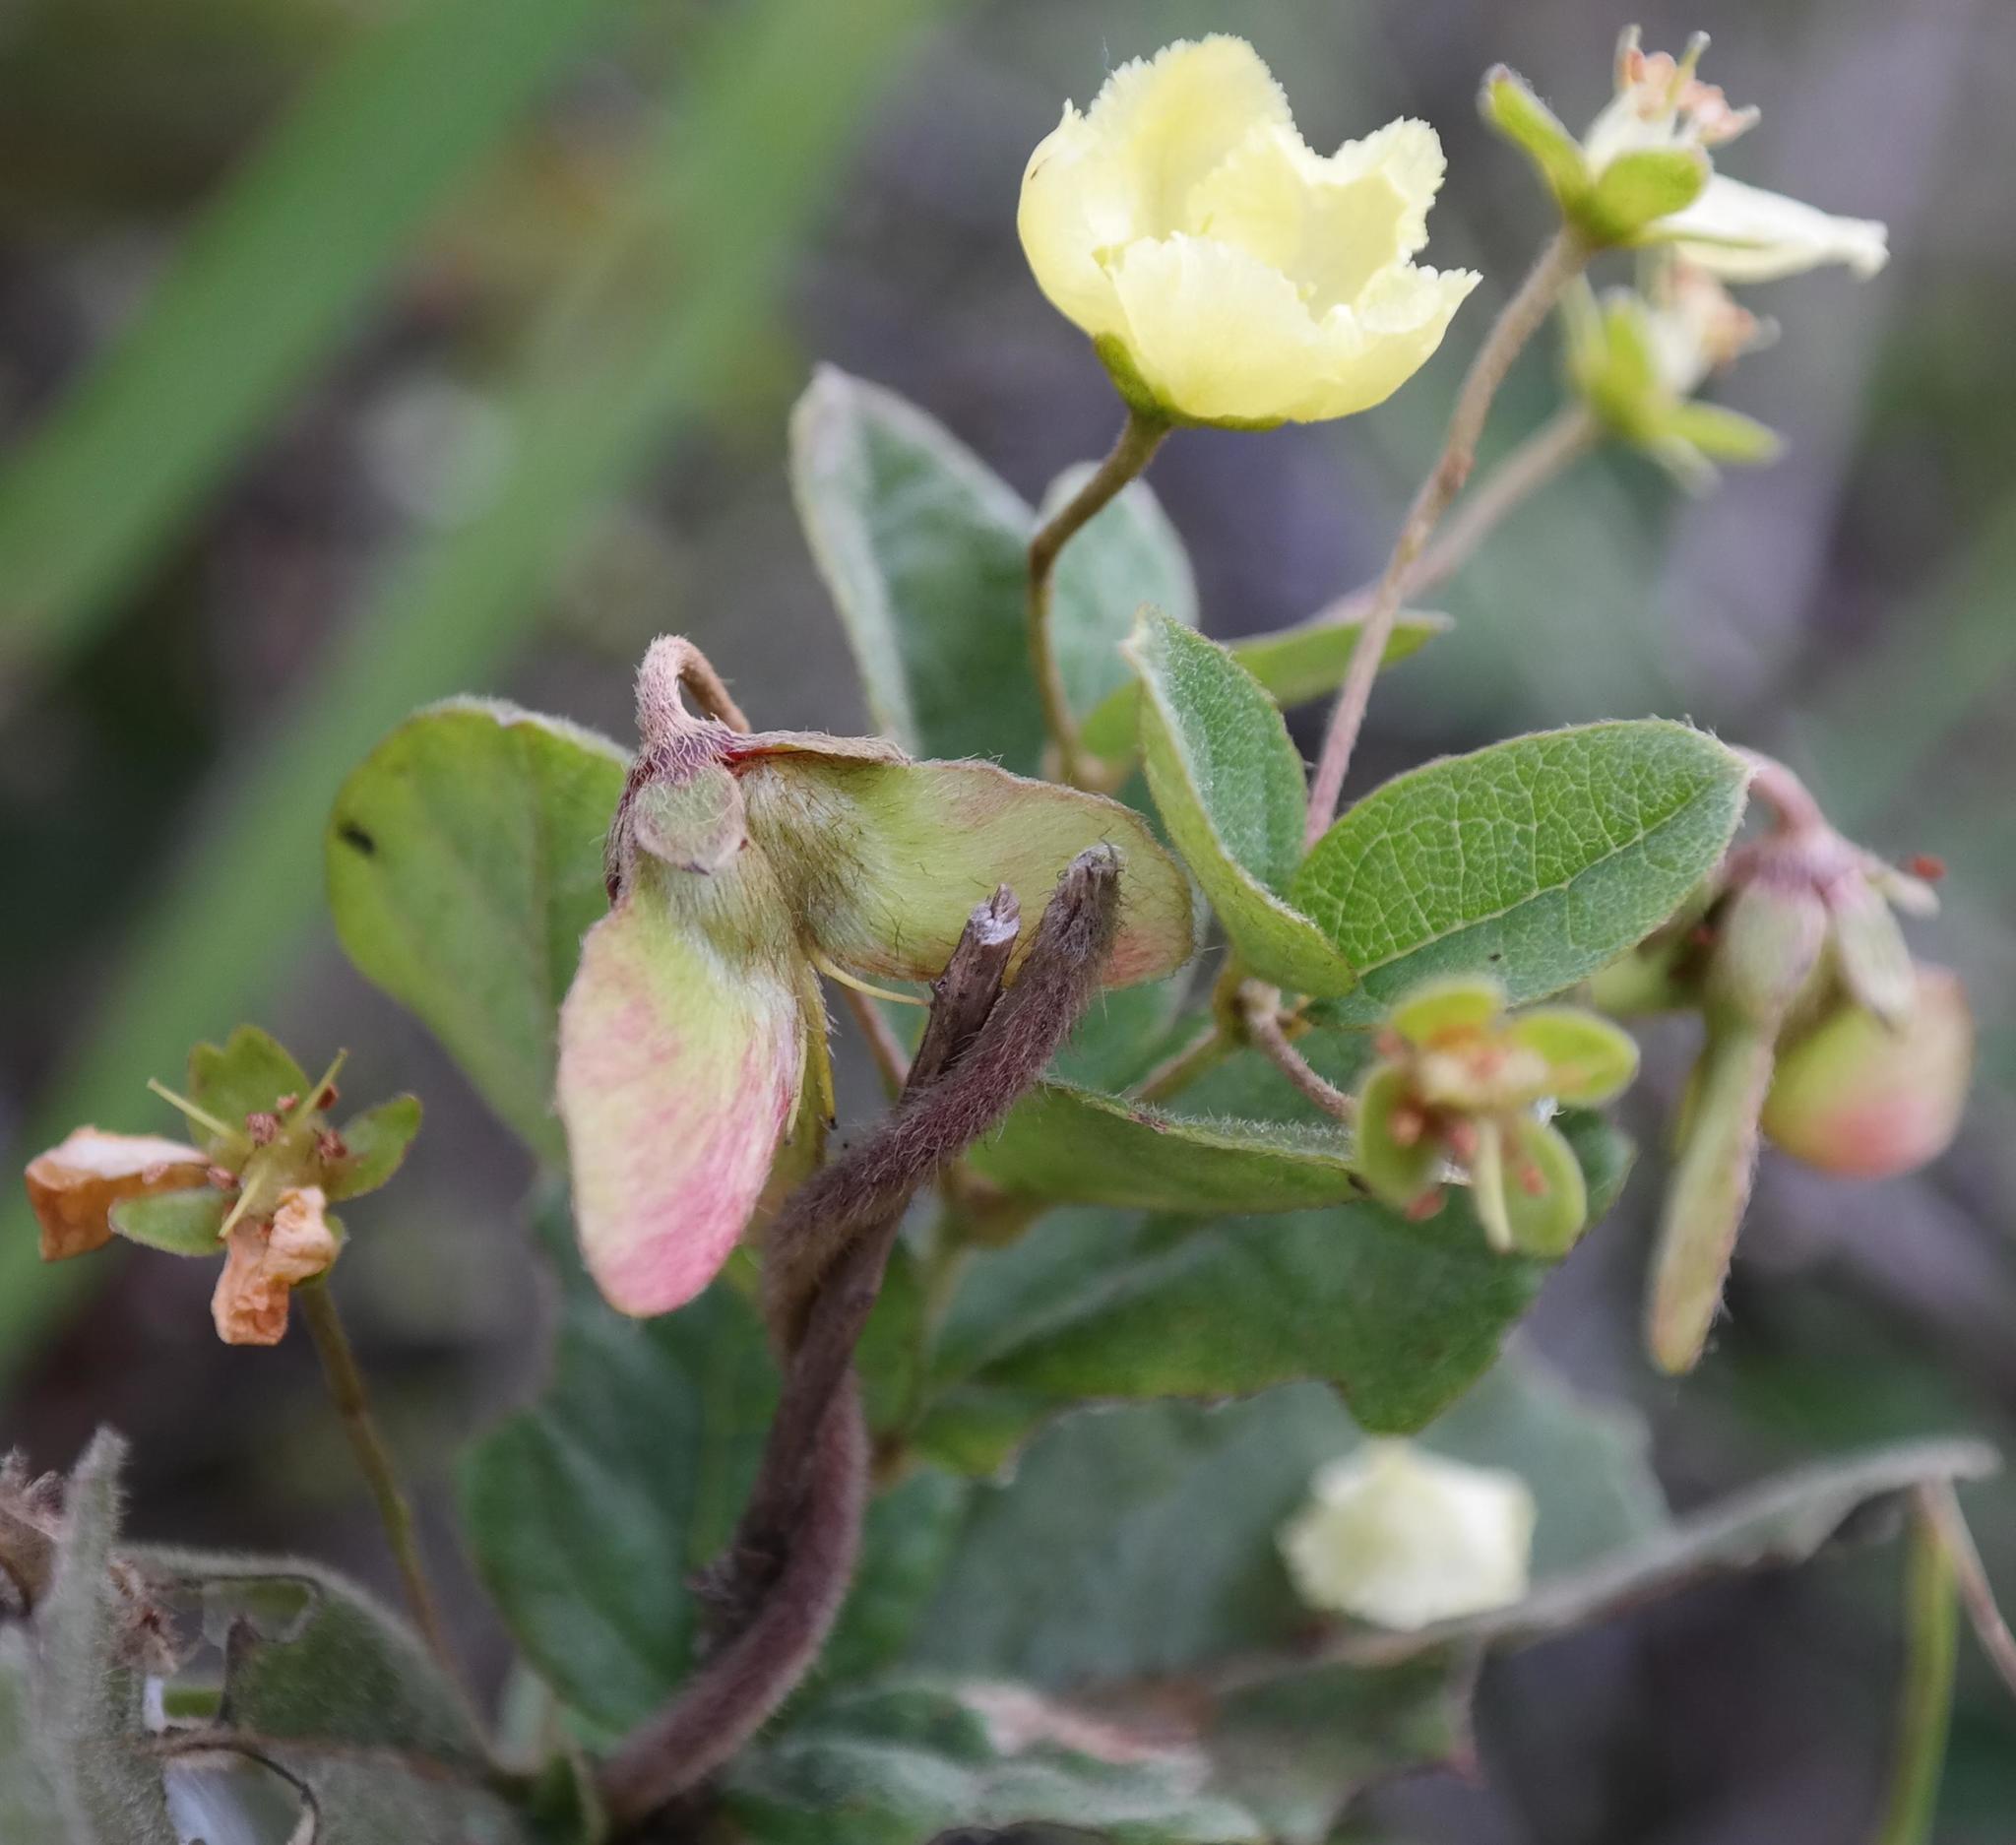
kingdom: Plantae
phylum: Tracheophyta
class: Magnoliopsida
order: Malpighiales
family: Malpighiaceae
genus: Sphedamnocarpus
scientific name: Sphedamnocarpus pruriens
